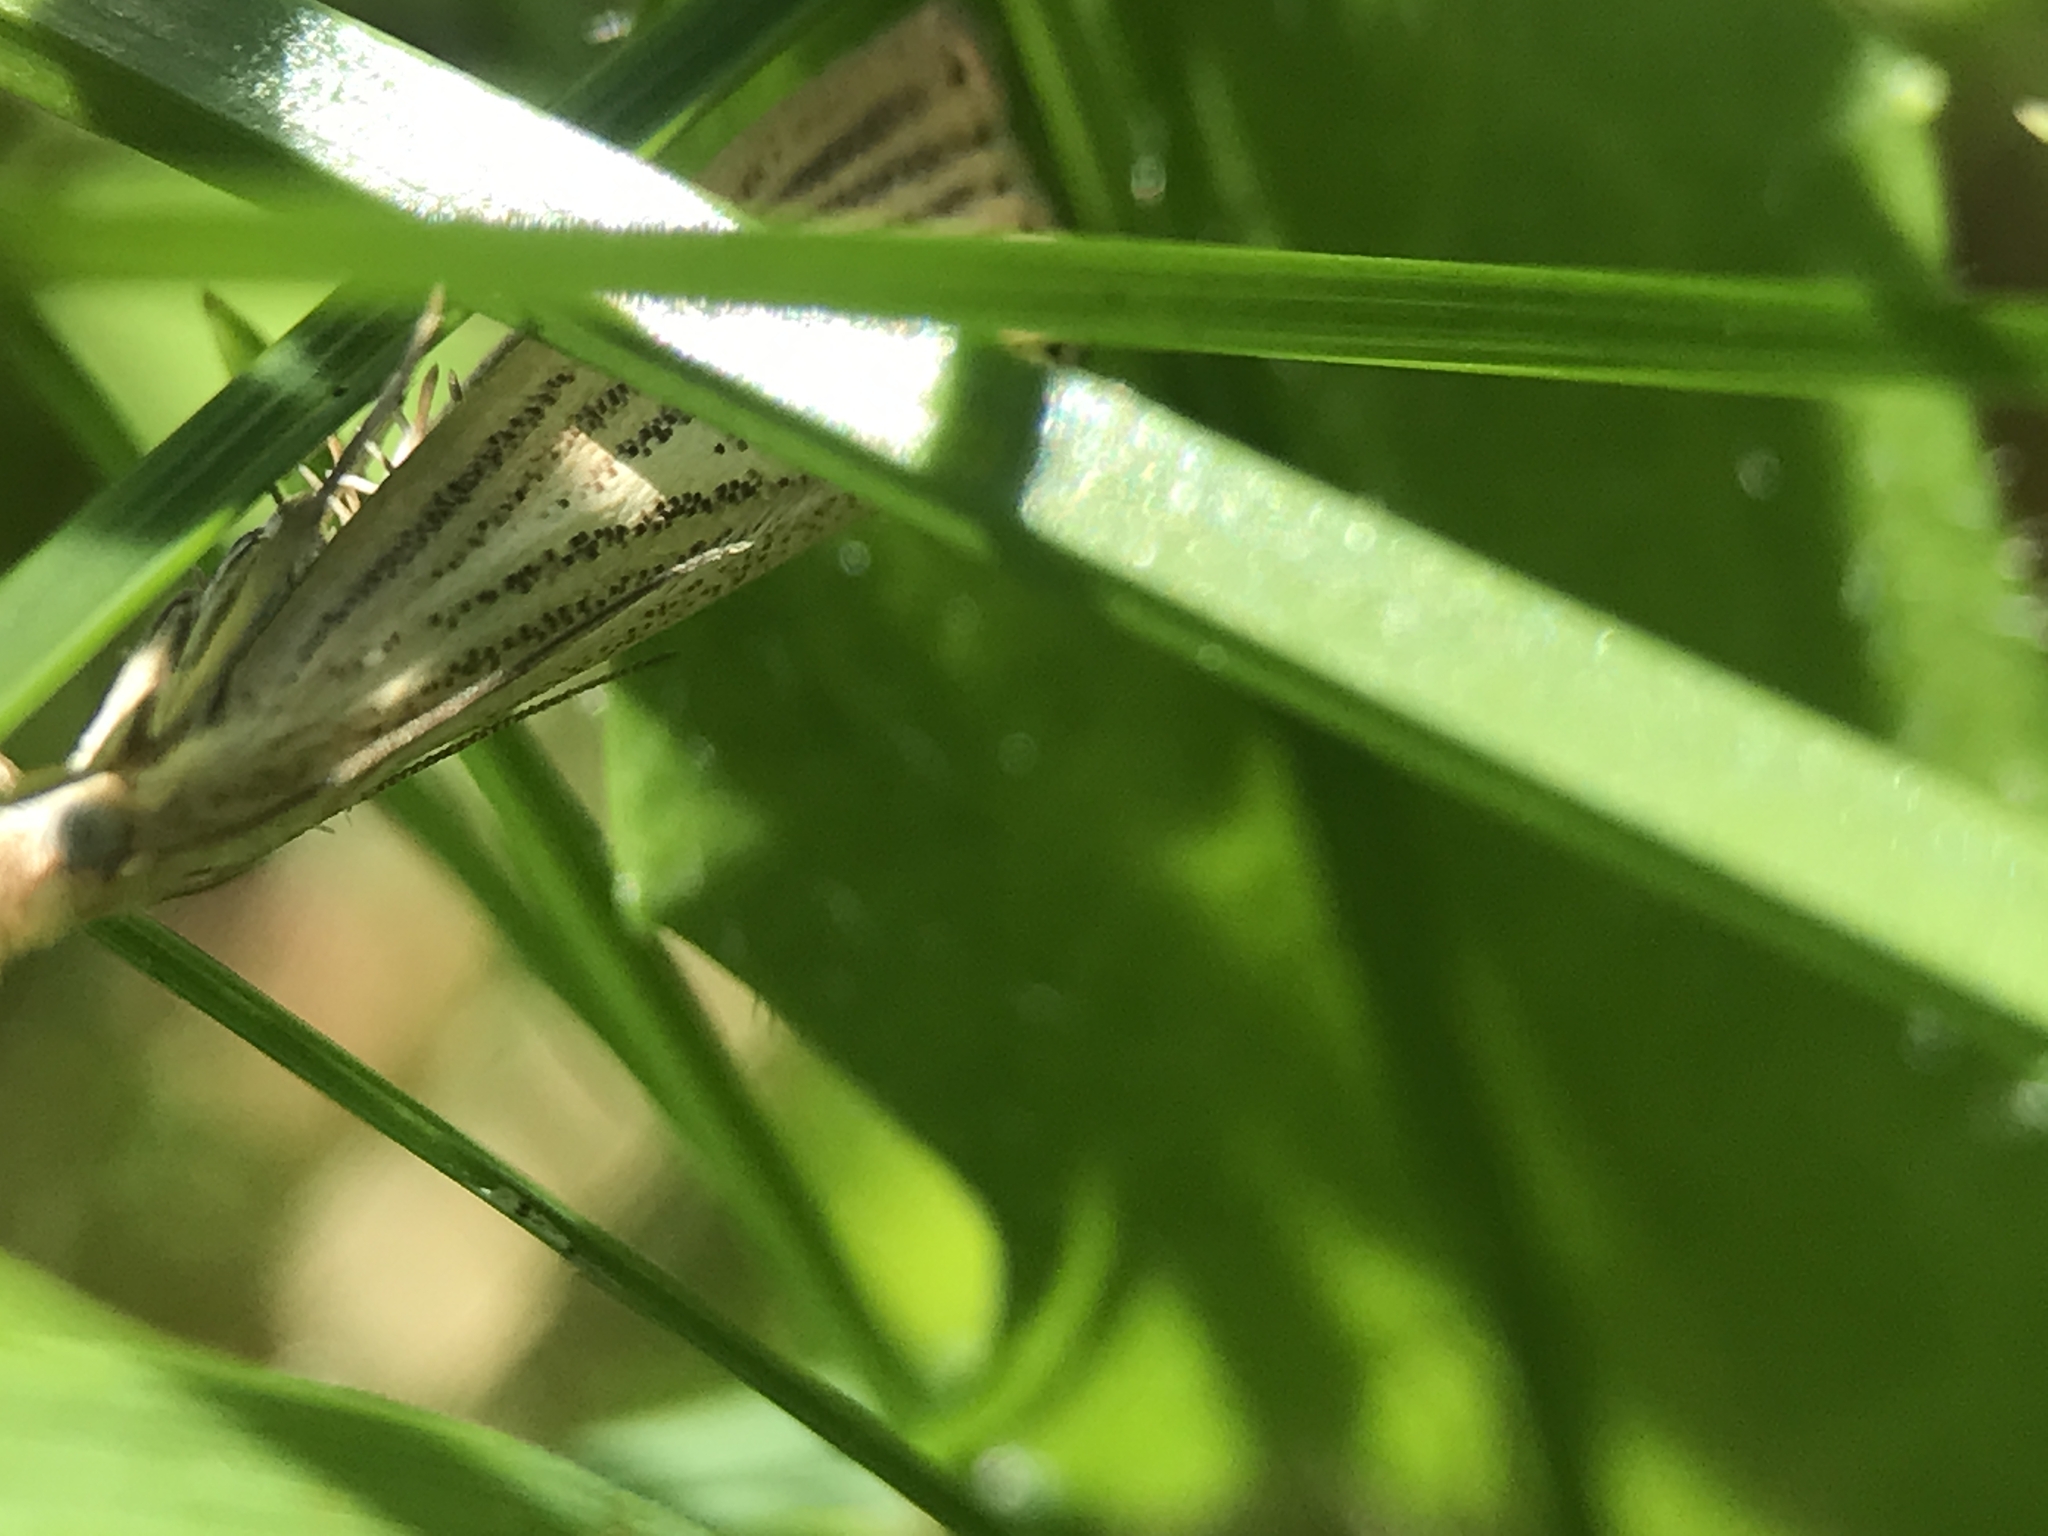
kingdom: Animalia
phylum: Arthropoda
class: Insecta
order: Lepidoptera
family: Crambidae
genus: Agriphila
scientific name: Agriphila straminella
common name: Straw grass-veneer
